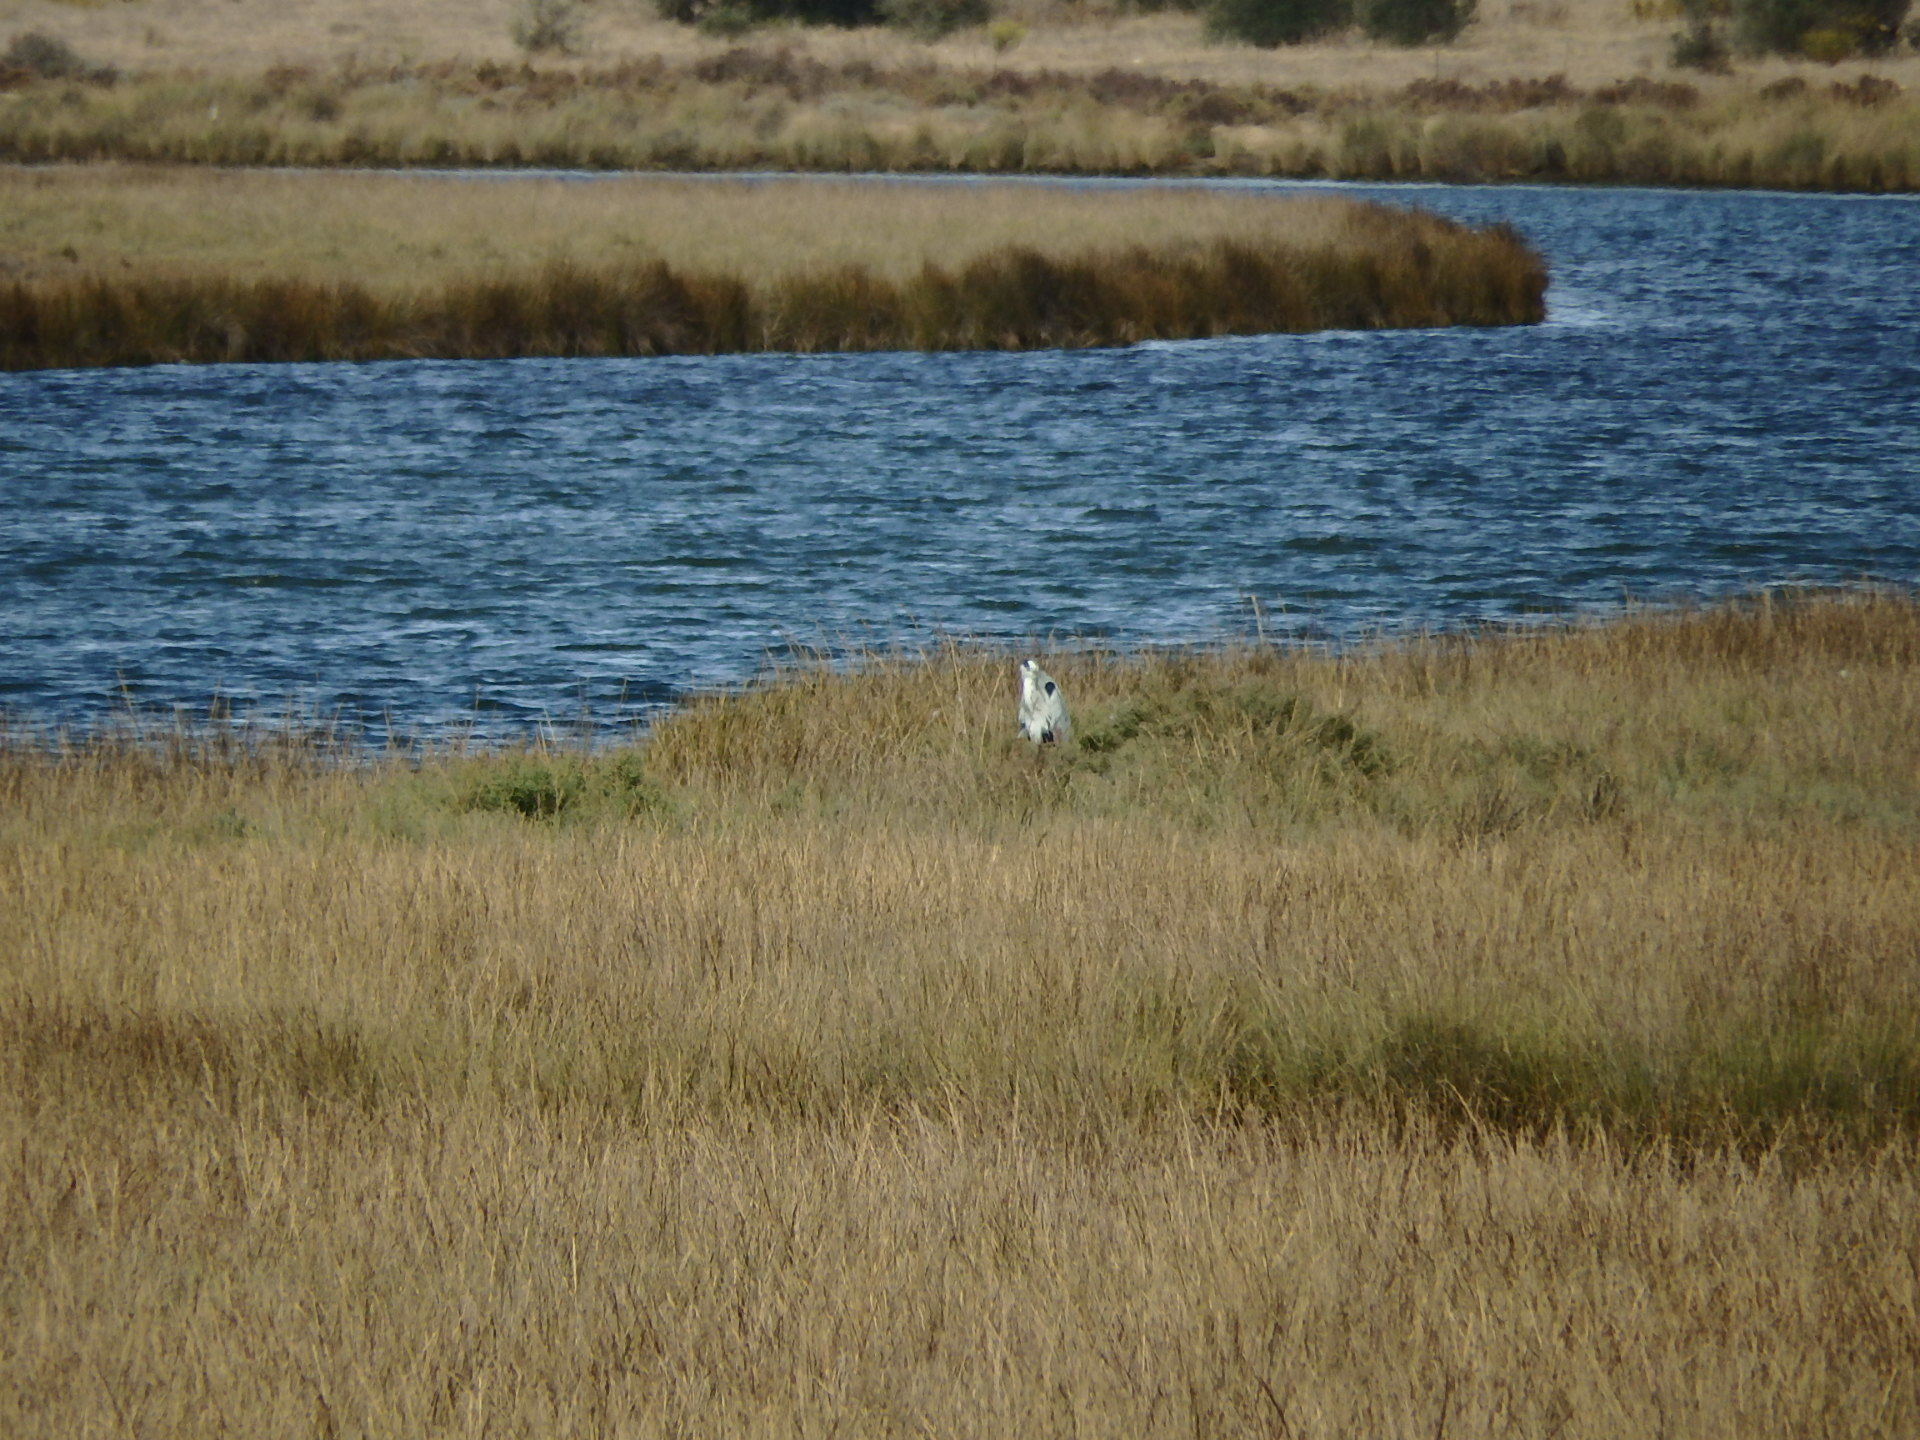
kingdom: Animalia
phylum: Chordata
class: Aves
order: Pelecaniformes
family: Ardeidae
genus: Ardea
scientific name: Ardea cinerea
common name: Grey heron
